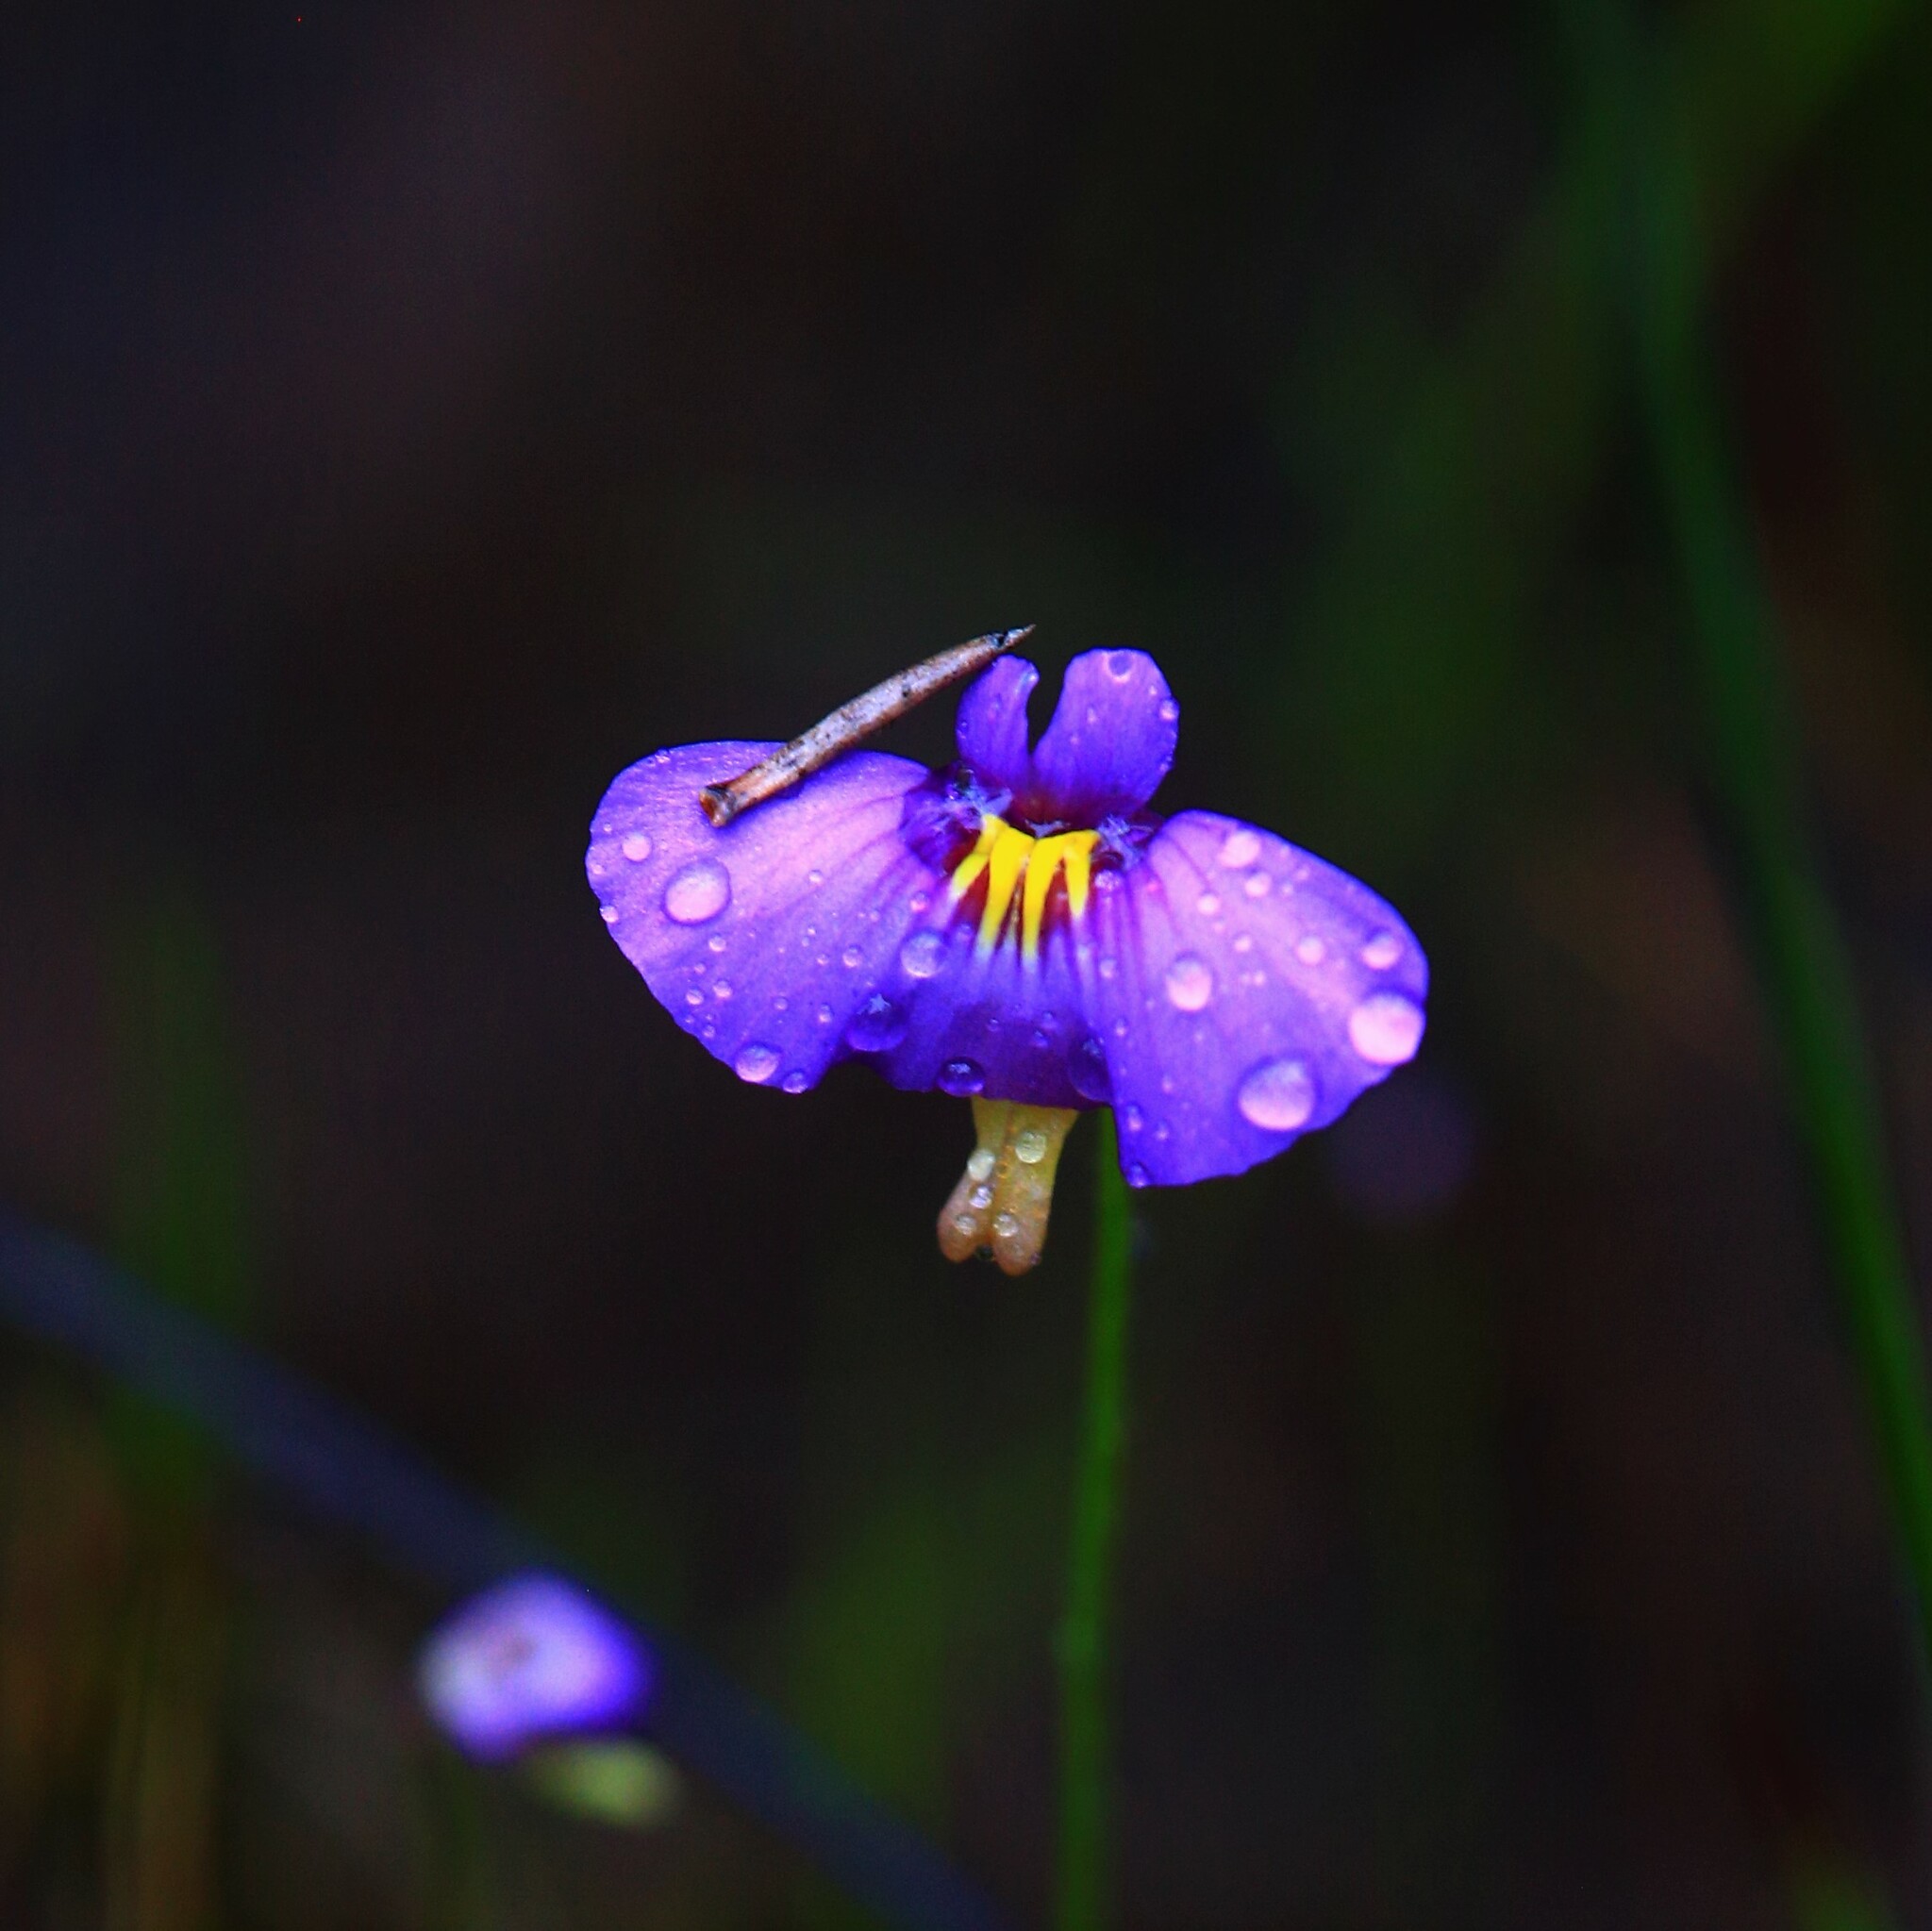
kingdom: Plantae
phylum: Tracheophyta
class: Magnoliopsida
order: Lamiales
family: Lentibulariaceae
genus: Utricularia
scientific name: Utricularia petertaylorii
